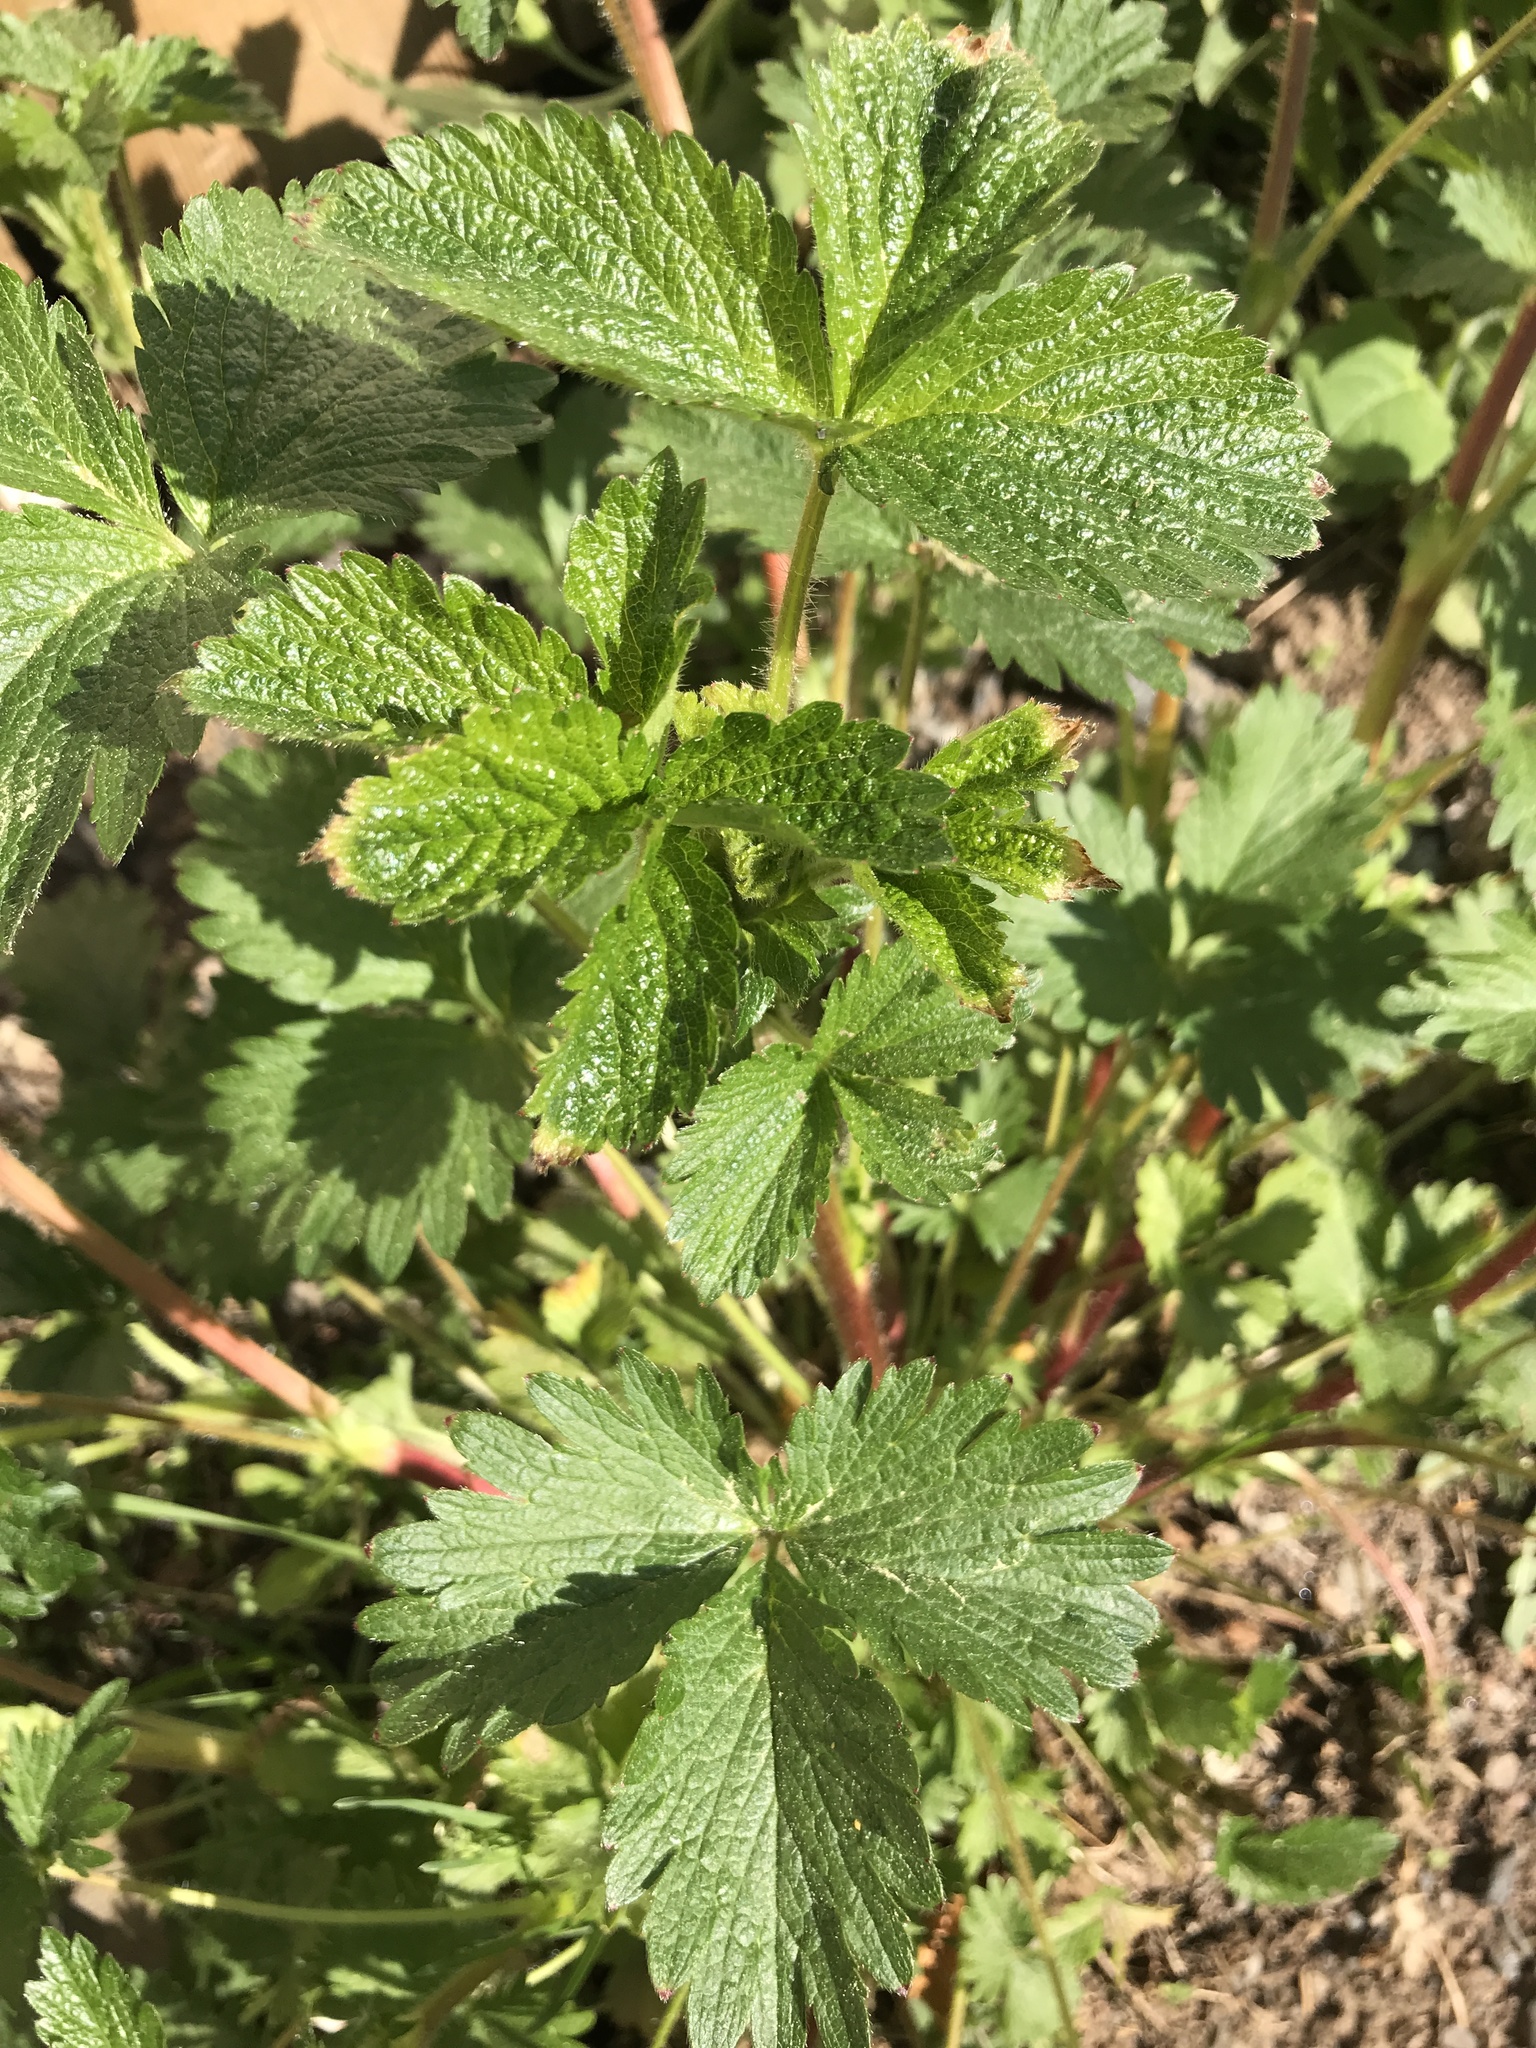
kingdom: Plantae
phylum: Tracheophyta
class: Magnoliopsida
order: Rosales
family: Rosaceae
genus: Potentilla
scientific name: Potentilla norvegica
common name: Ternate-leaved cinquefoil
